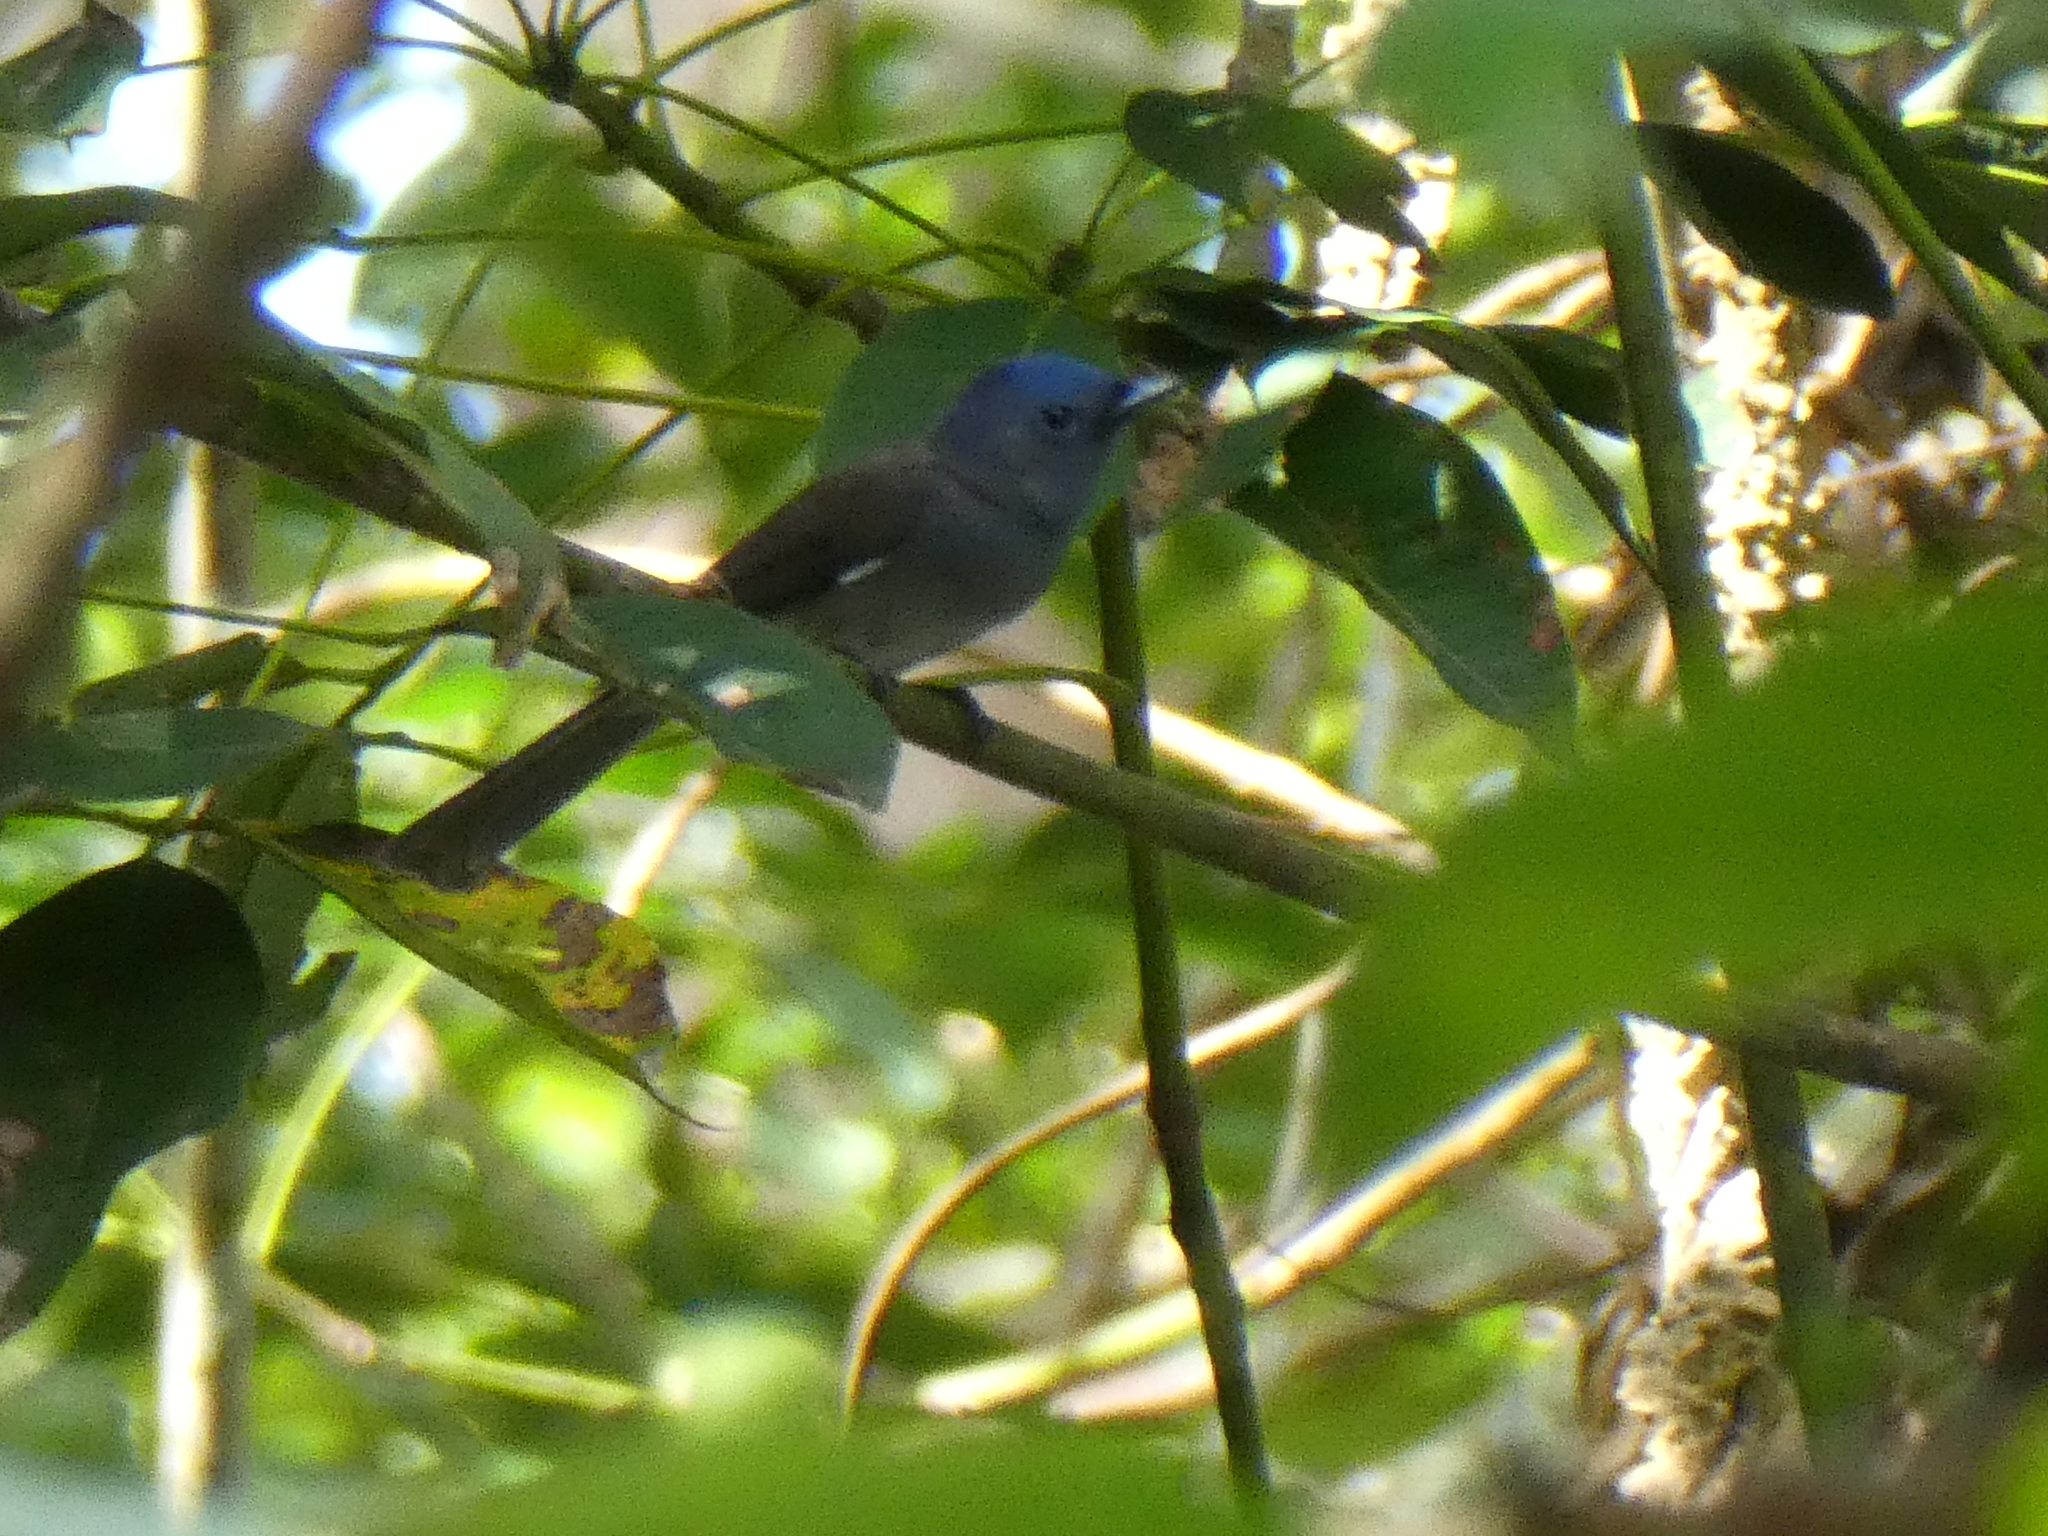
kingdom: Animalia
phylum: Chordata
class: Aves
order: Passeriformes
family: Monarchidae
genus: Hypothymis
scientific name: Hypothymis azurea
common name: Black-naped monarch
